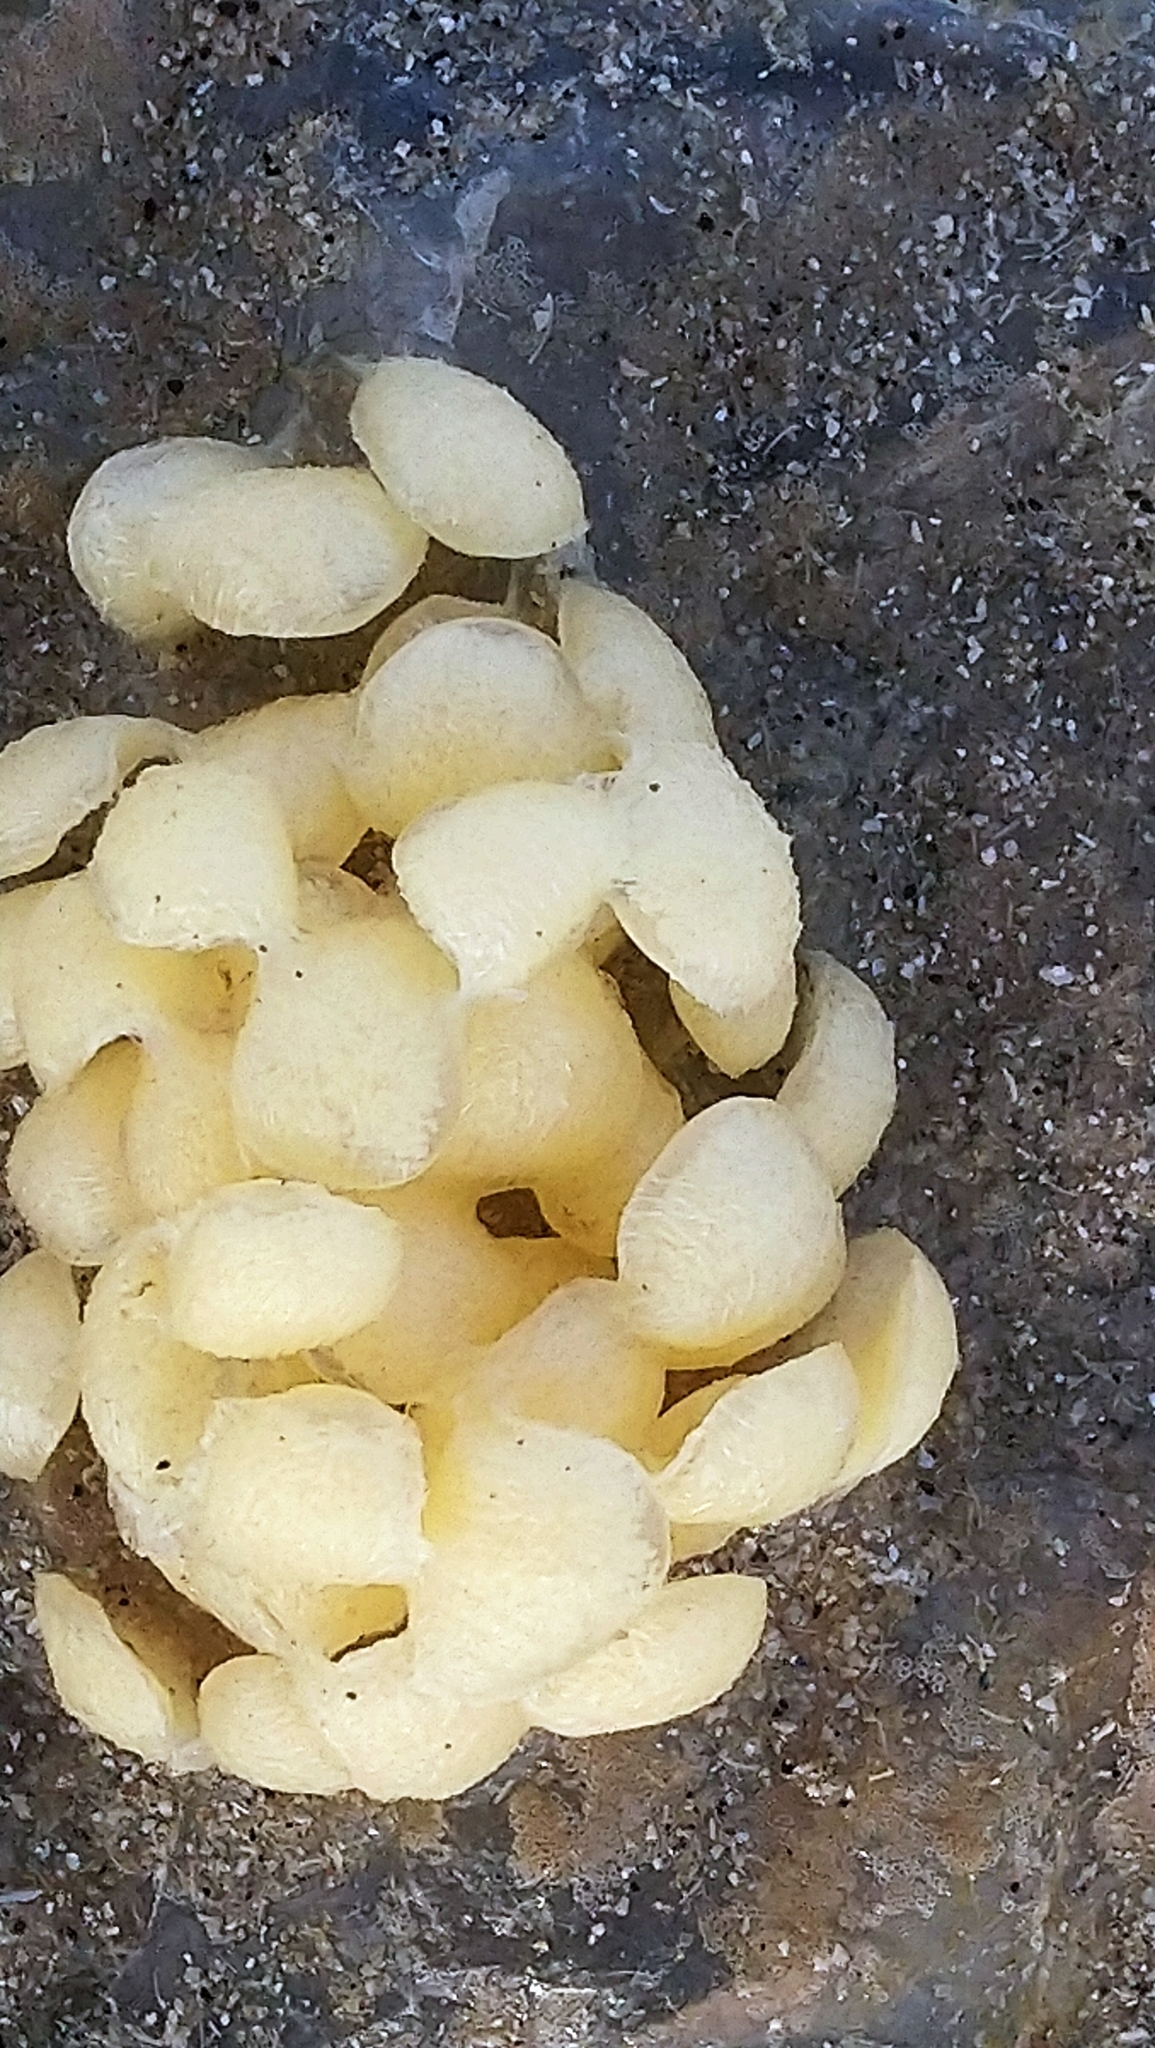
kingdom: Animalia
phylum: Mollusca
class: Gastropoda
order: Neogastropoda
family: Buccinidae
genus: Buccinum
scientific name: Buccinum undatum
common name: Common whelk
